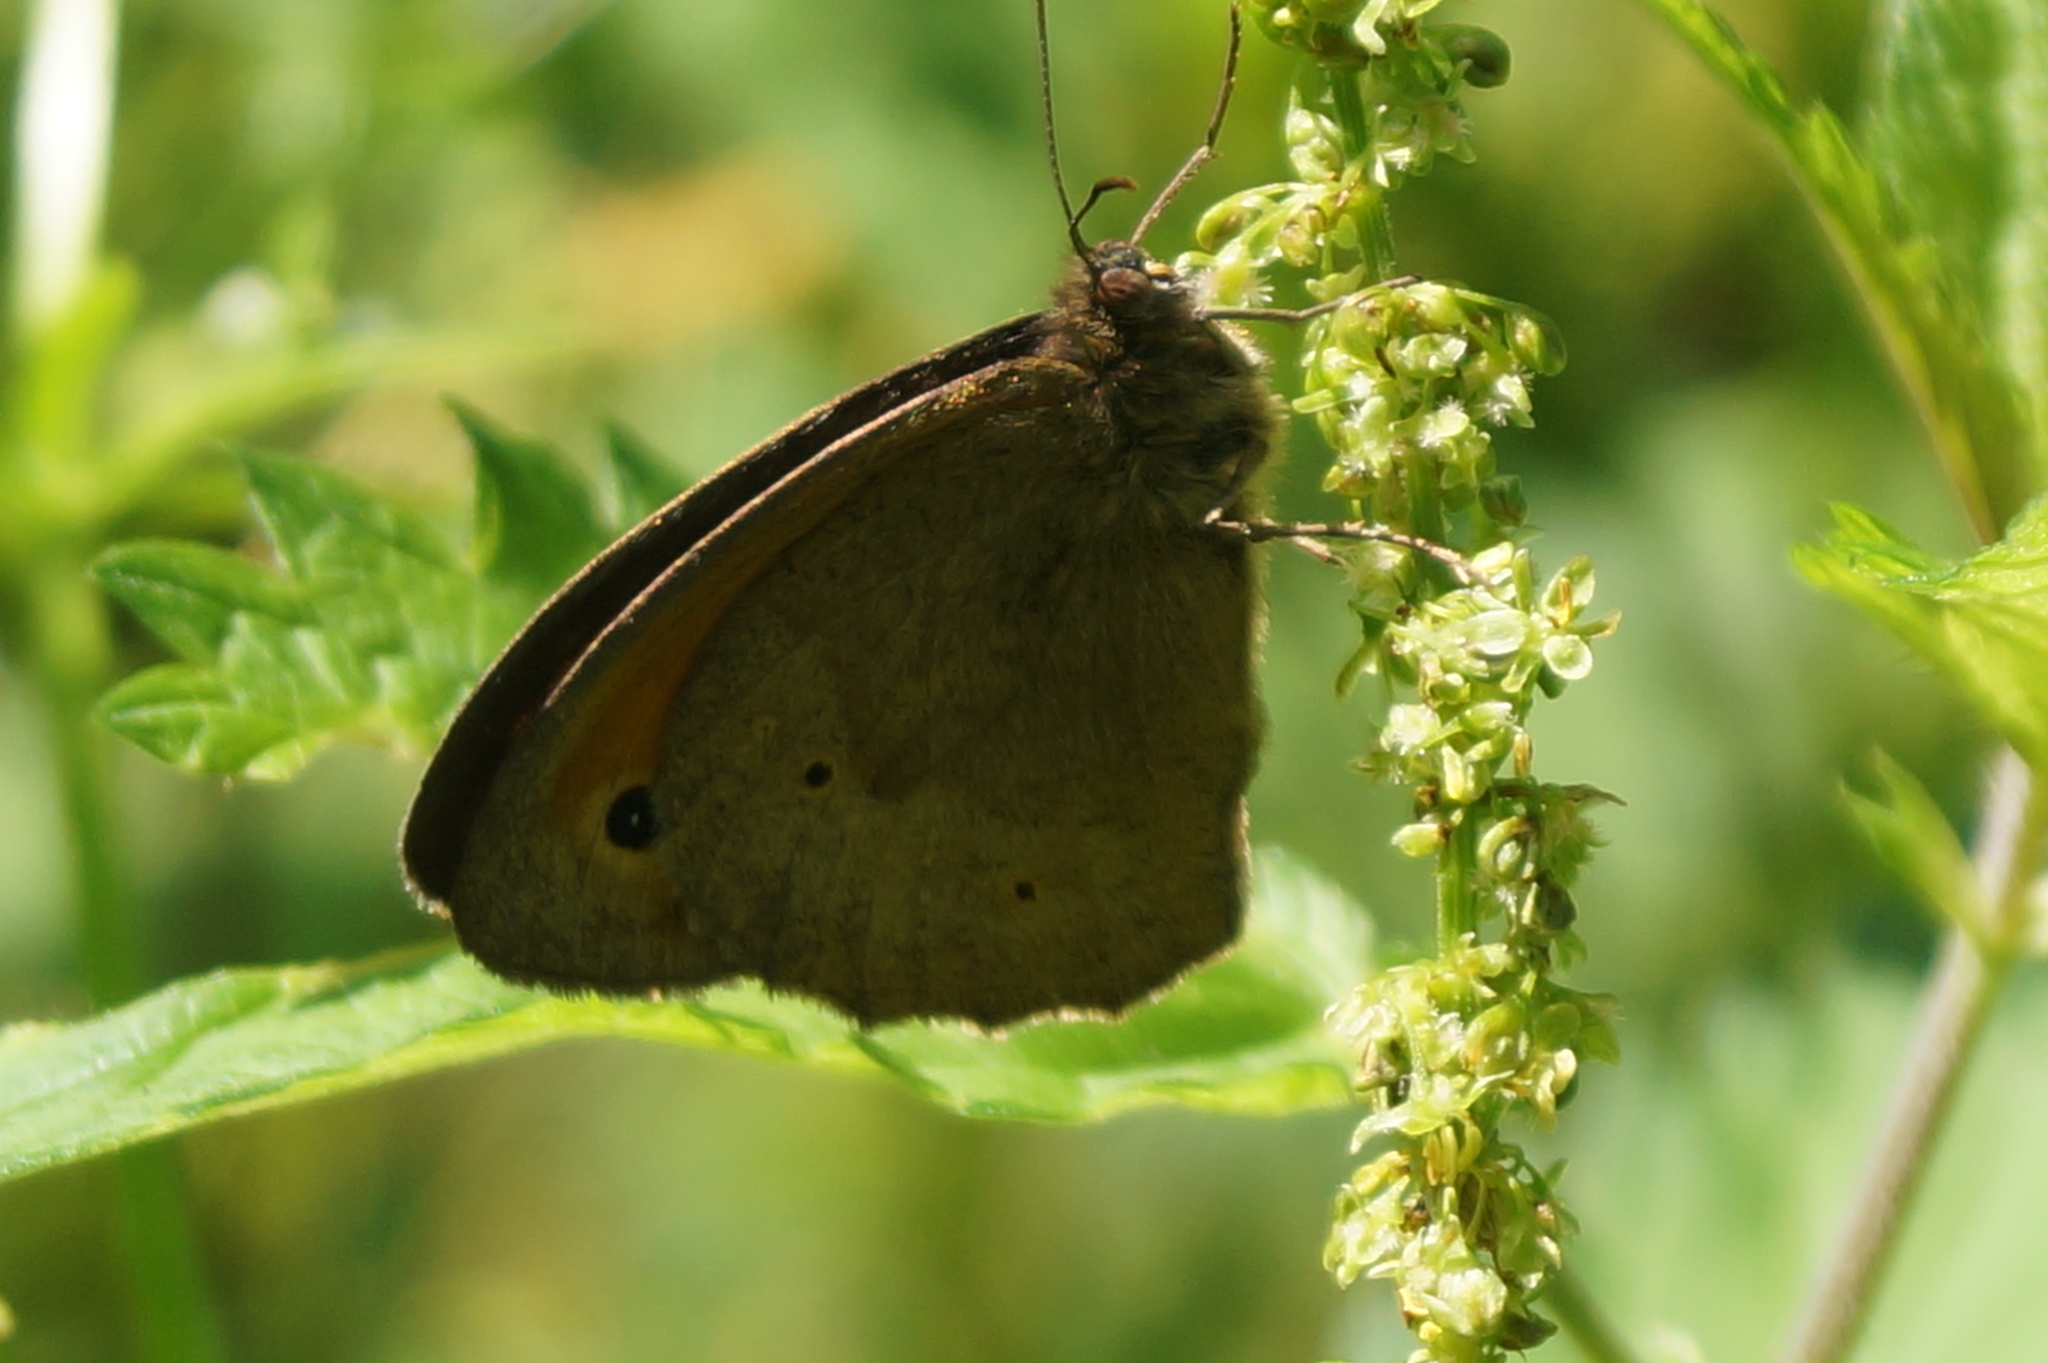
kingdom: Animalia
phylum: Arthropoda
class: Insecta
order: Lepidoptera
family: Nymphalidae
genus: Maniola
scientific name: Maniola jurtina
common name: Meadow brown
